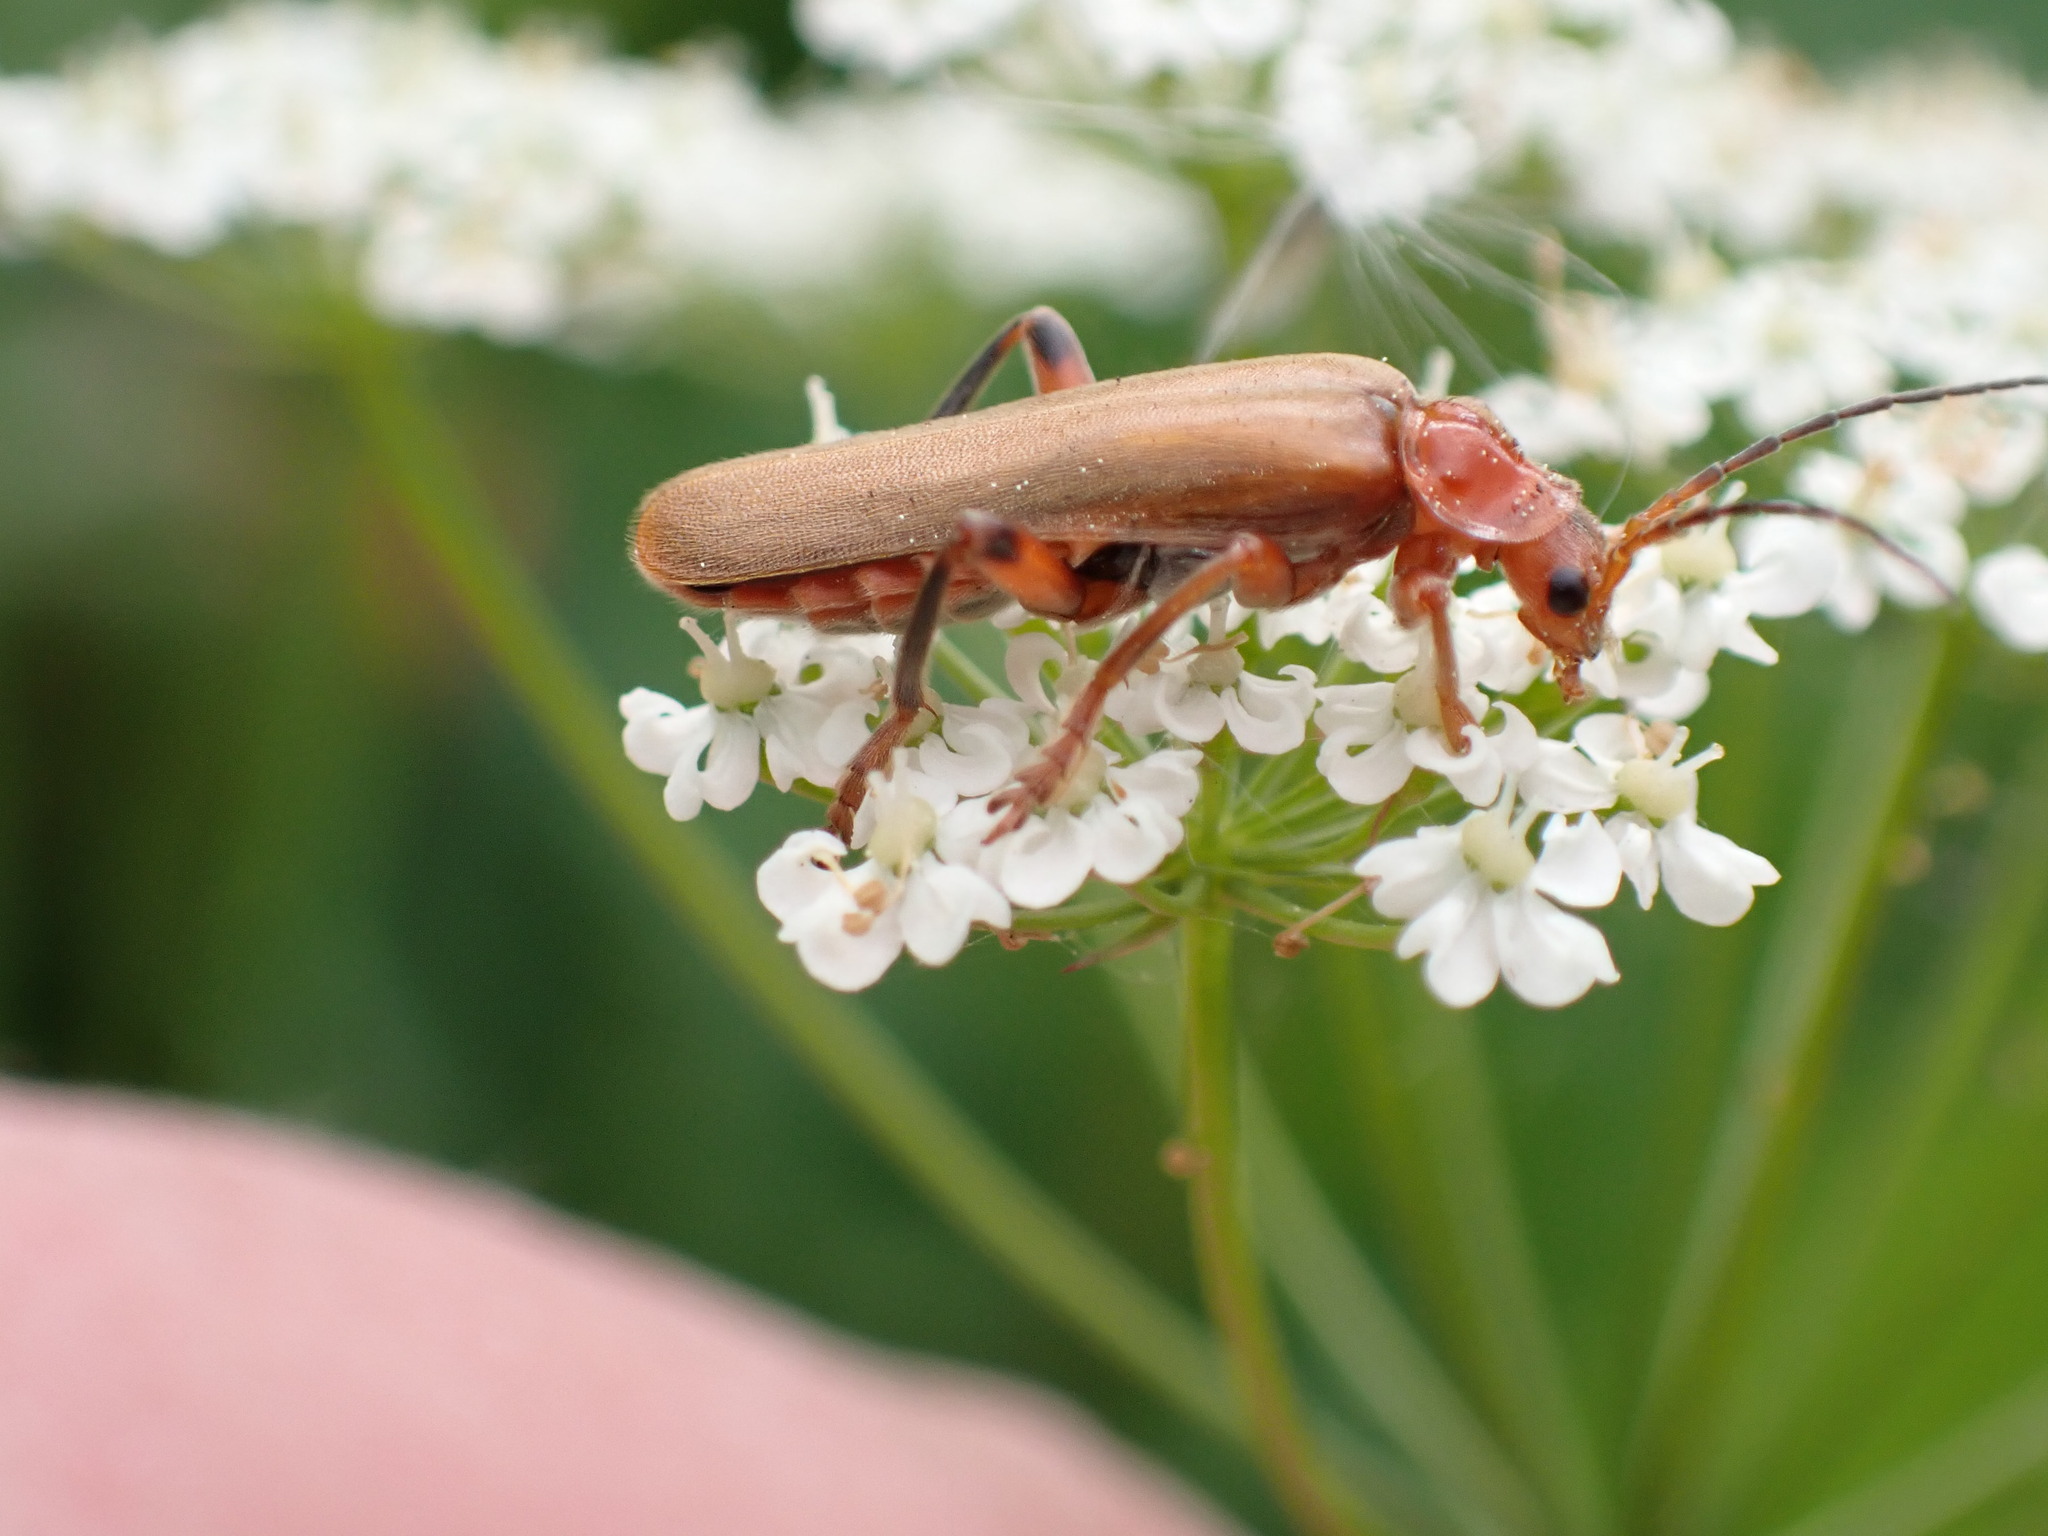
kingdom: Animalia
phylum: Arthropoda
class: Insecta
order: Coleoptera
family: Cantharidae
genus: Cantharis
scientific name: Cantharis livida
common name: Livid soldier beetle
